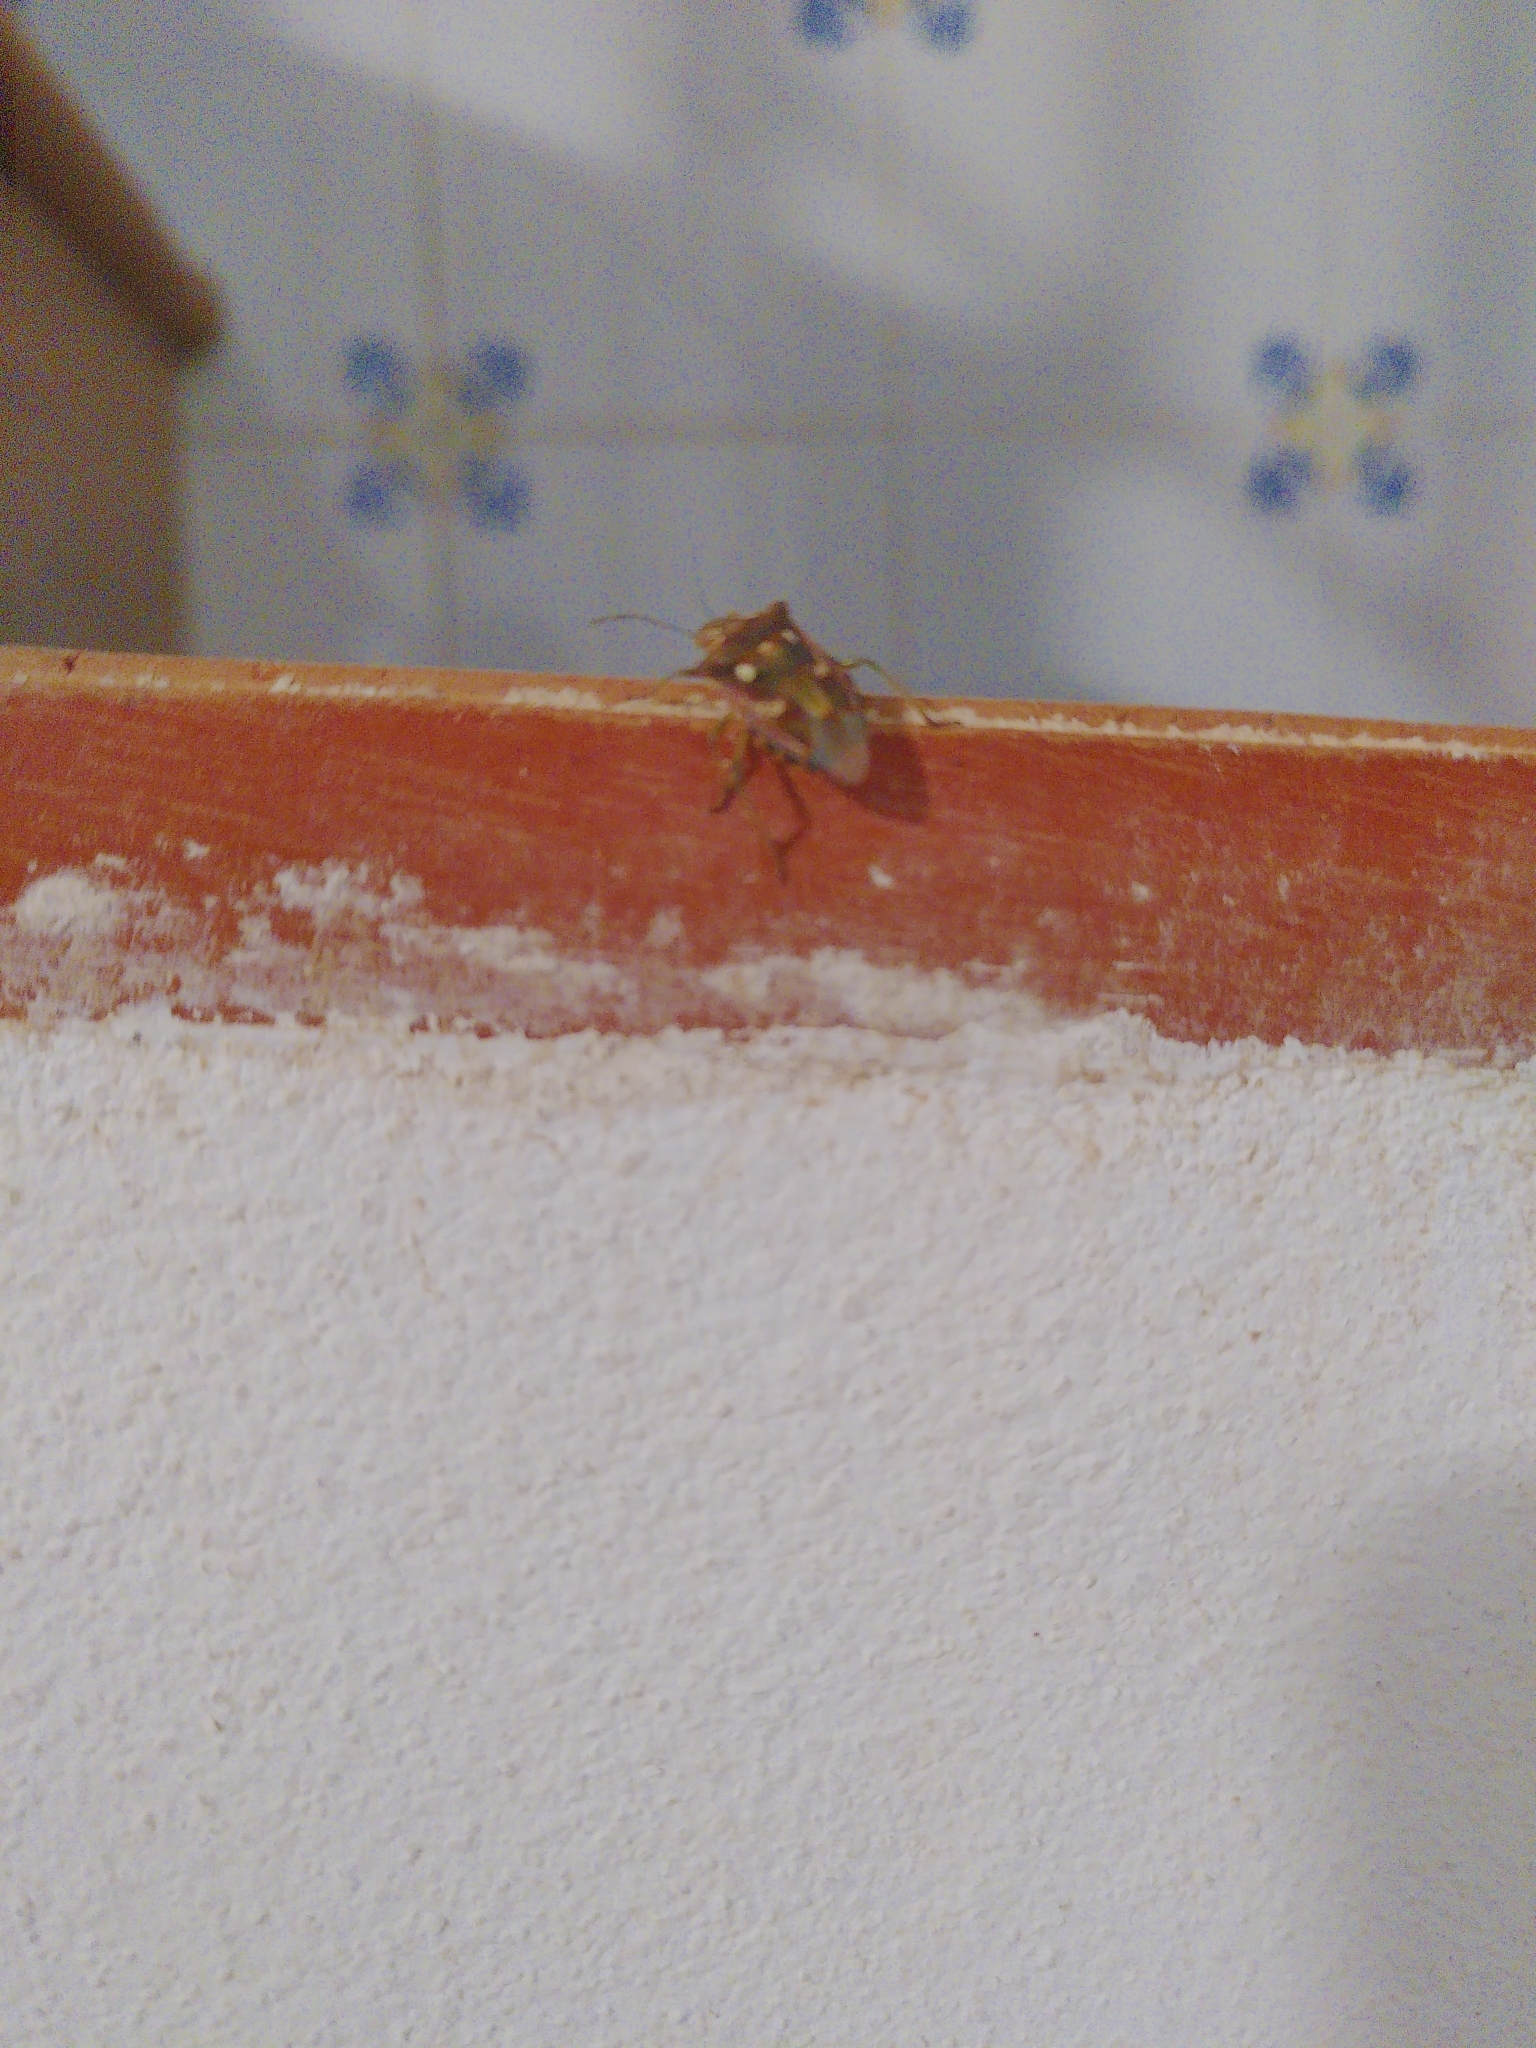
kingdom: Animalia
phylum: Arthropoda
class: Insecta
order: Hemiptera
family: Pentatomidae
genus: Croantha
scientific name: Croantha ornatula
